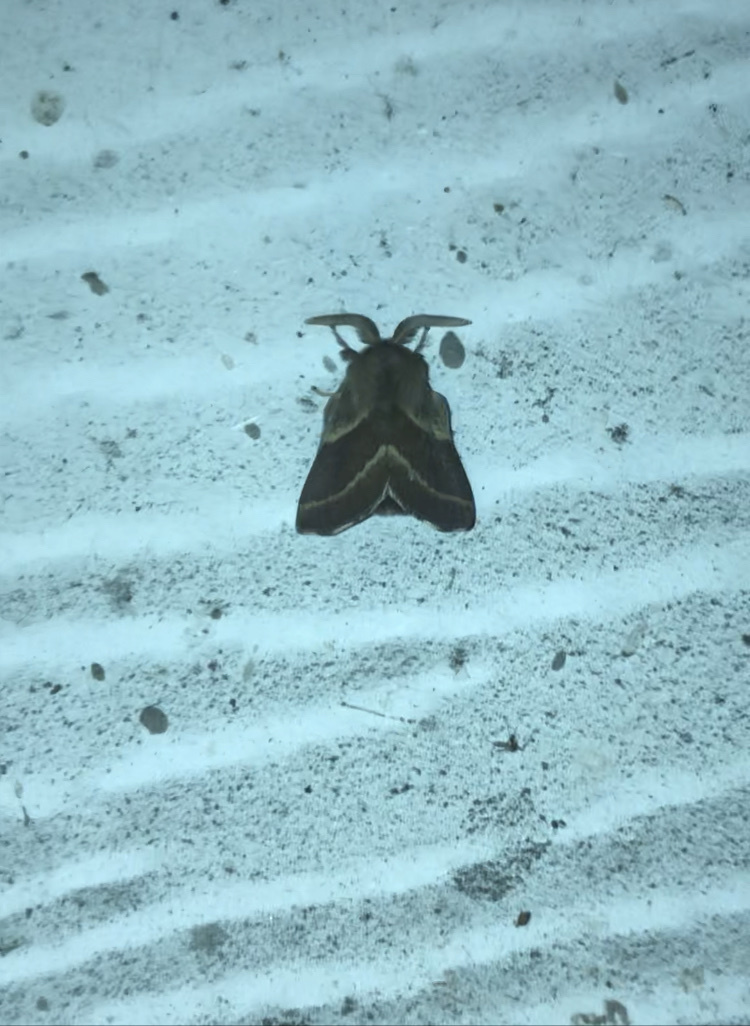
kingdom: Animalia
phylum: Arthropoda
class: Insecta
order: Lepidoptera
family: Lasiocampidae
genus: Malacosoma
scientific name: Malacosoma californica
